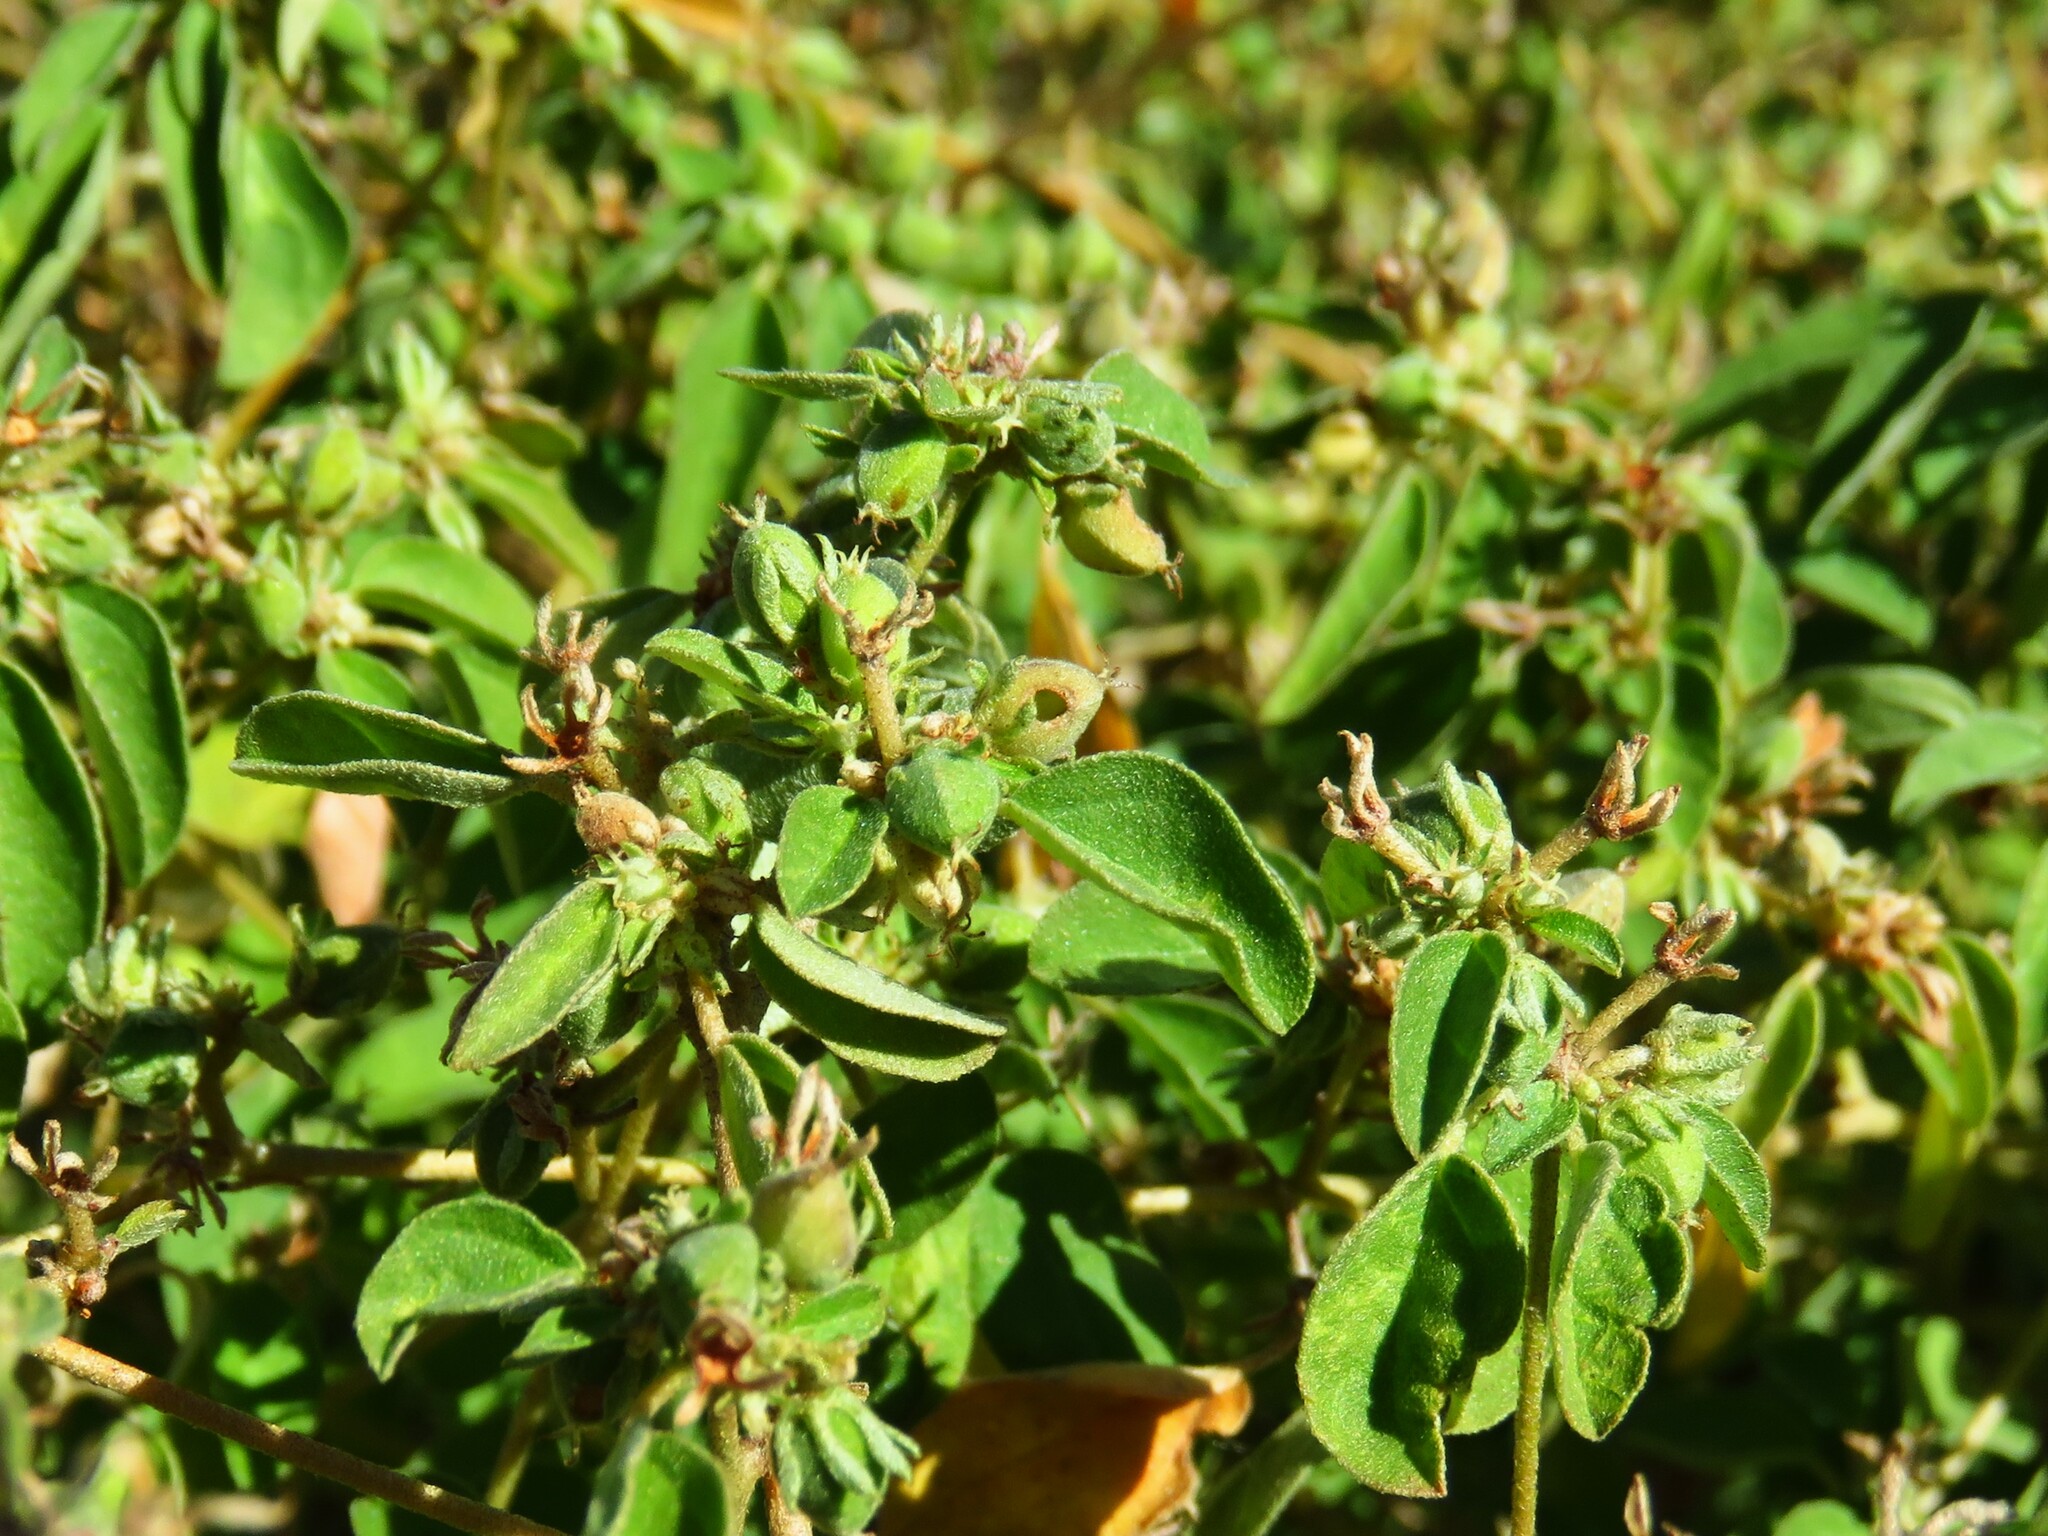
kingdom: Plantae
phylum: Tracheophyta
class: Magnoliopsida
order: Malpighiales
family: Euphorbiaceae
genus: Croton
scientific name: Croton monanthogynus
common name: One-seed croton
